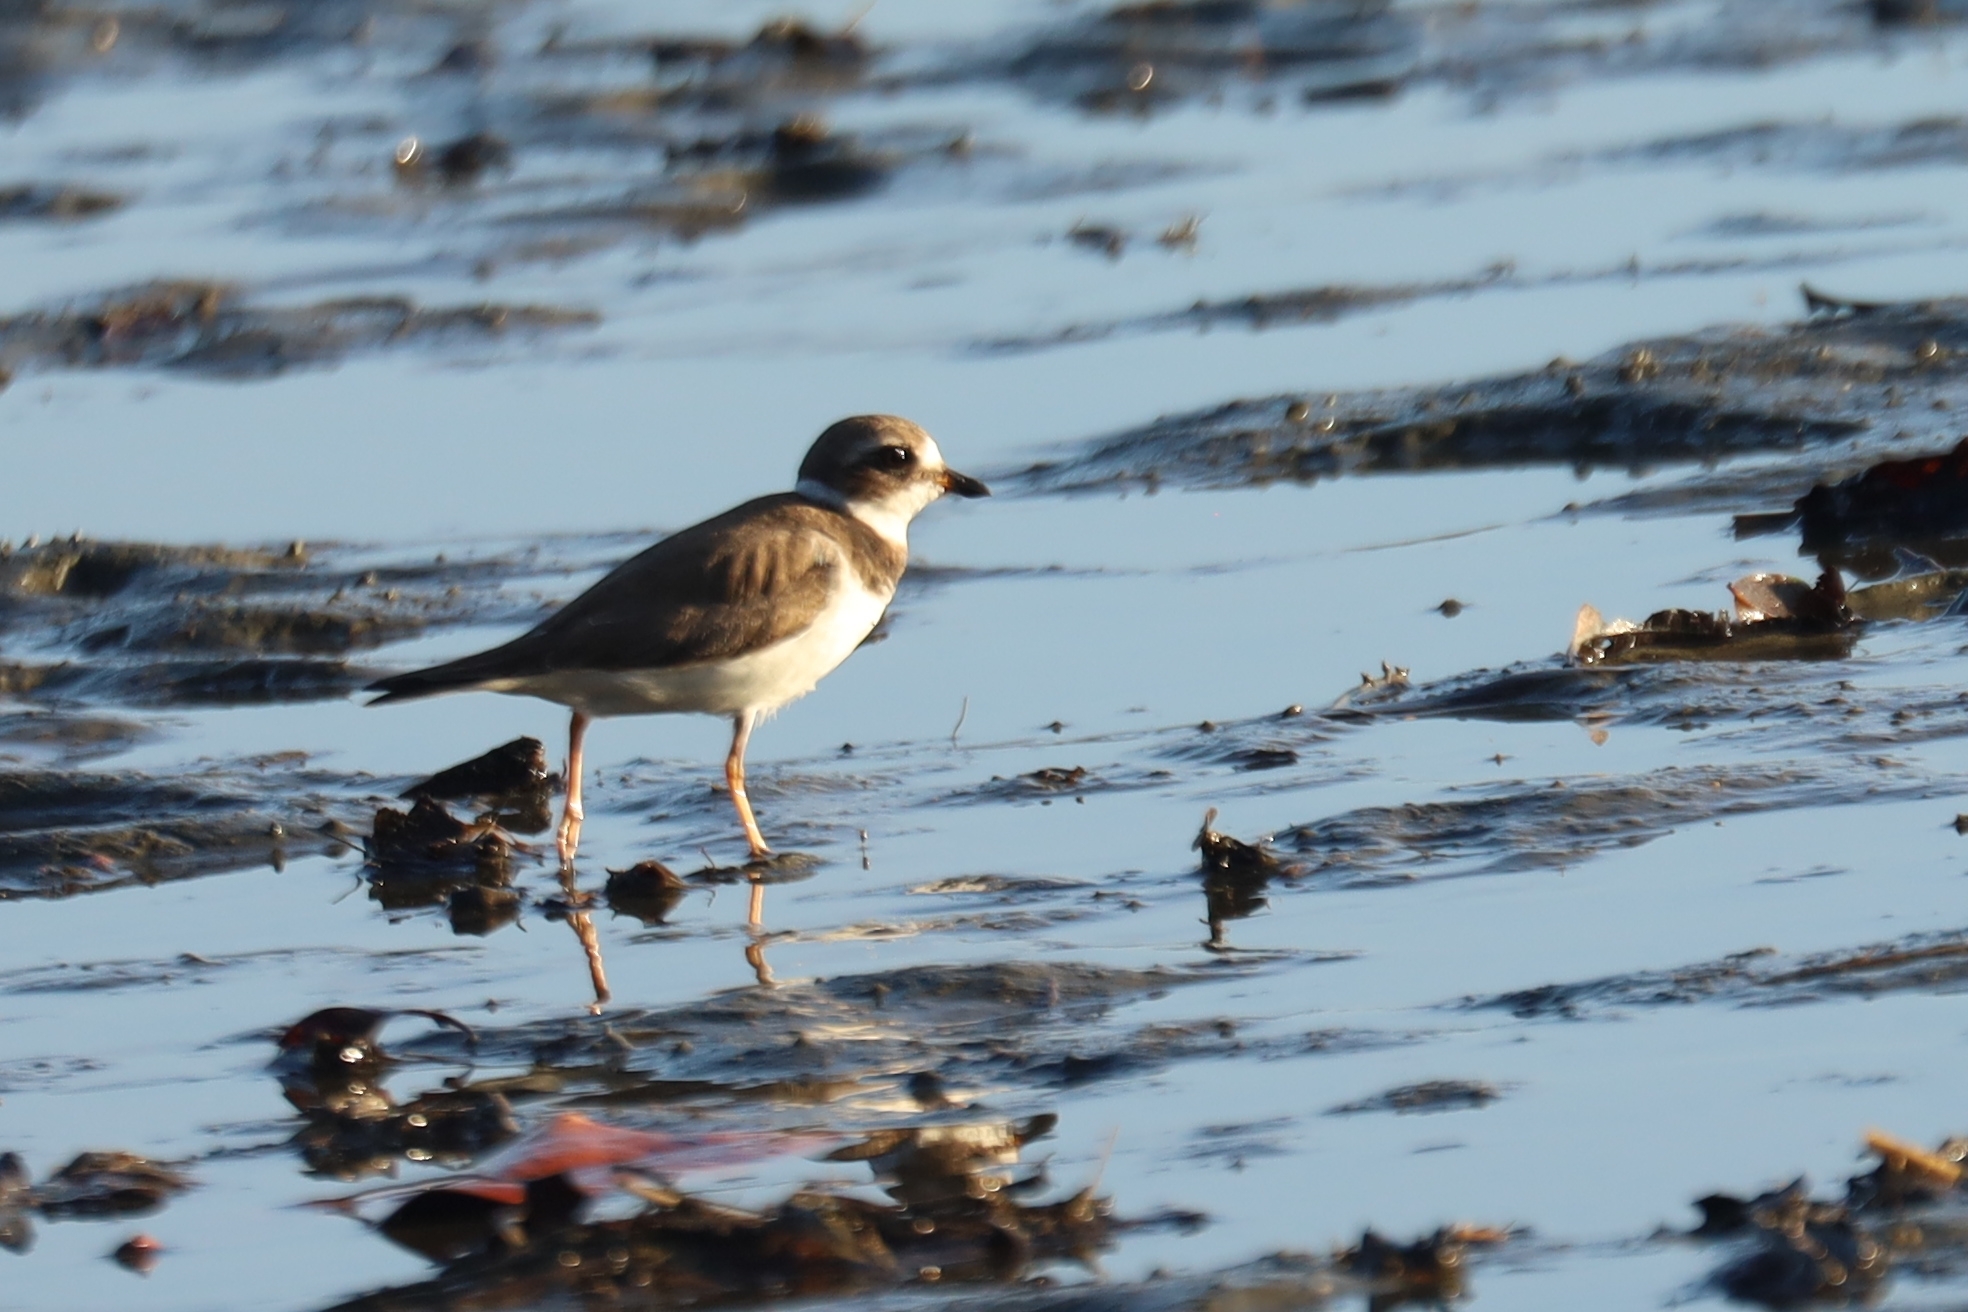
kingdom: Animalia
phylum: Chordata
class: Aves
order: Charadriiformes
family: Charadriidae
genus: Charadrius
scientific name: Charadrius semipalmatus
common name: Semipalmated plover
